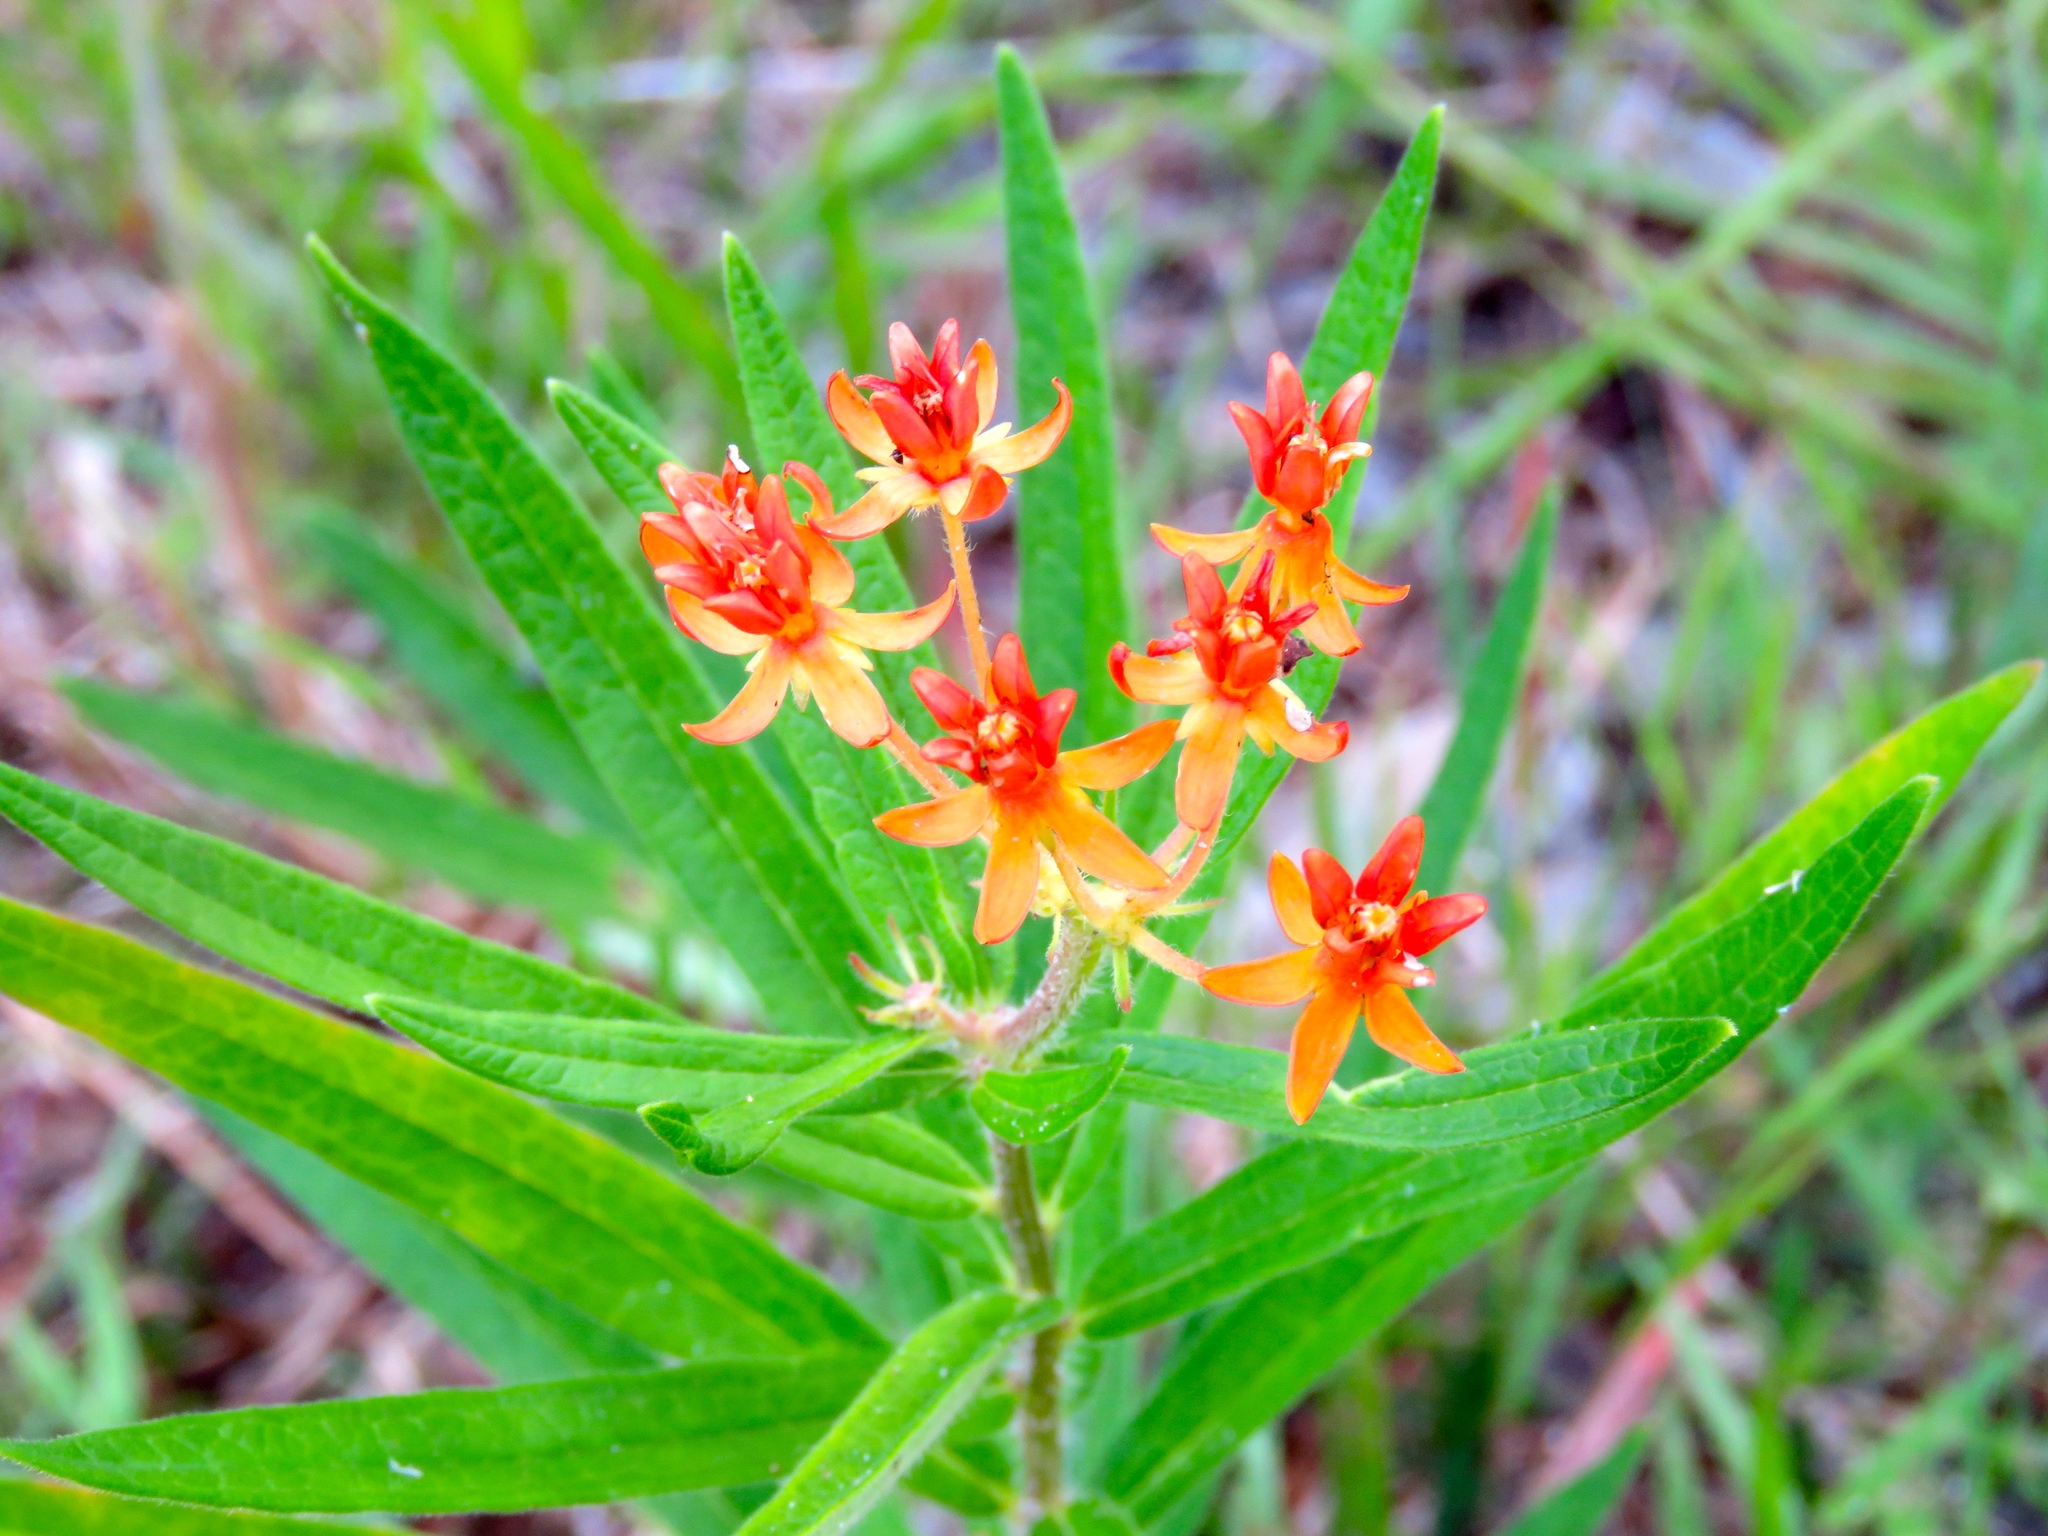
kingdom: Plantae
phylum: Tracheophyta
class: Magnoliopsida
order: Gentianales
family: Apocynaceae
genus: Asclepias
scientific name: Asclepias tuberosa
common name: Butterfly milkweed
